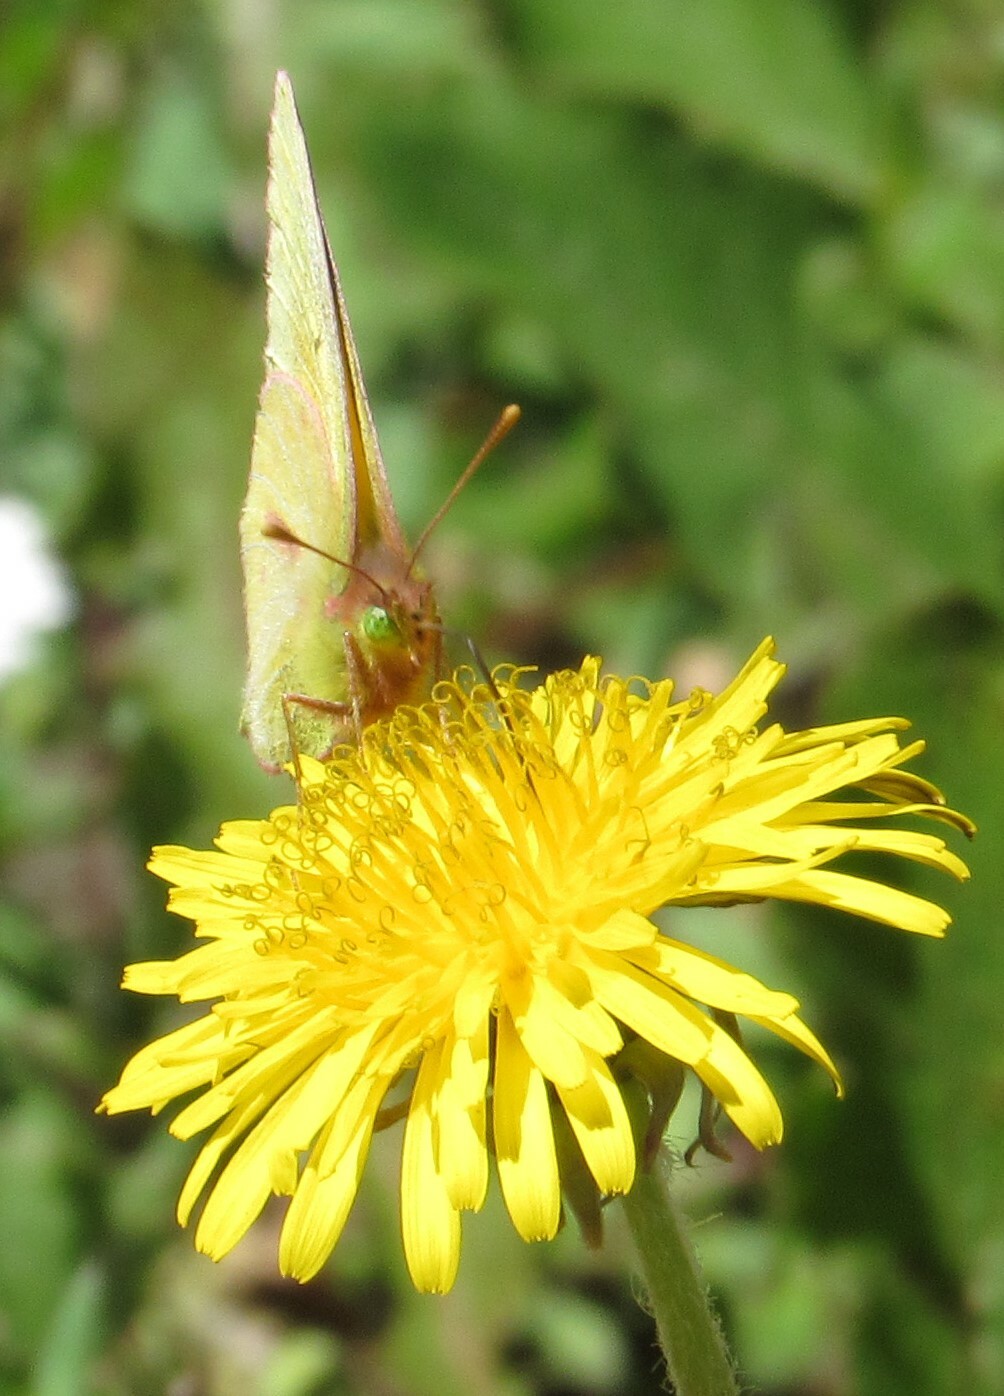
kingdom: Animalia
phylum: Arthropoda
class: Insecta
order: Lepidoptera
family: Pieridae
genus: Colias
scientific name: Colias dimera
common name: Dimera sulphur
